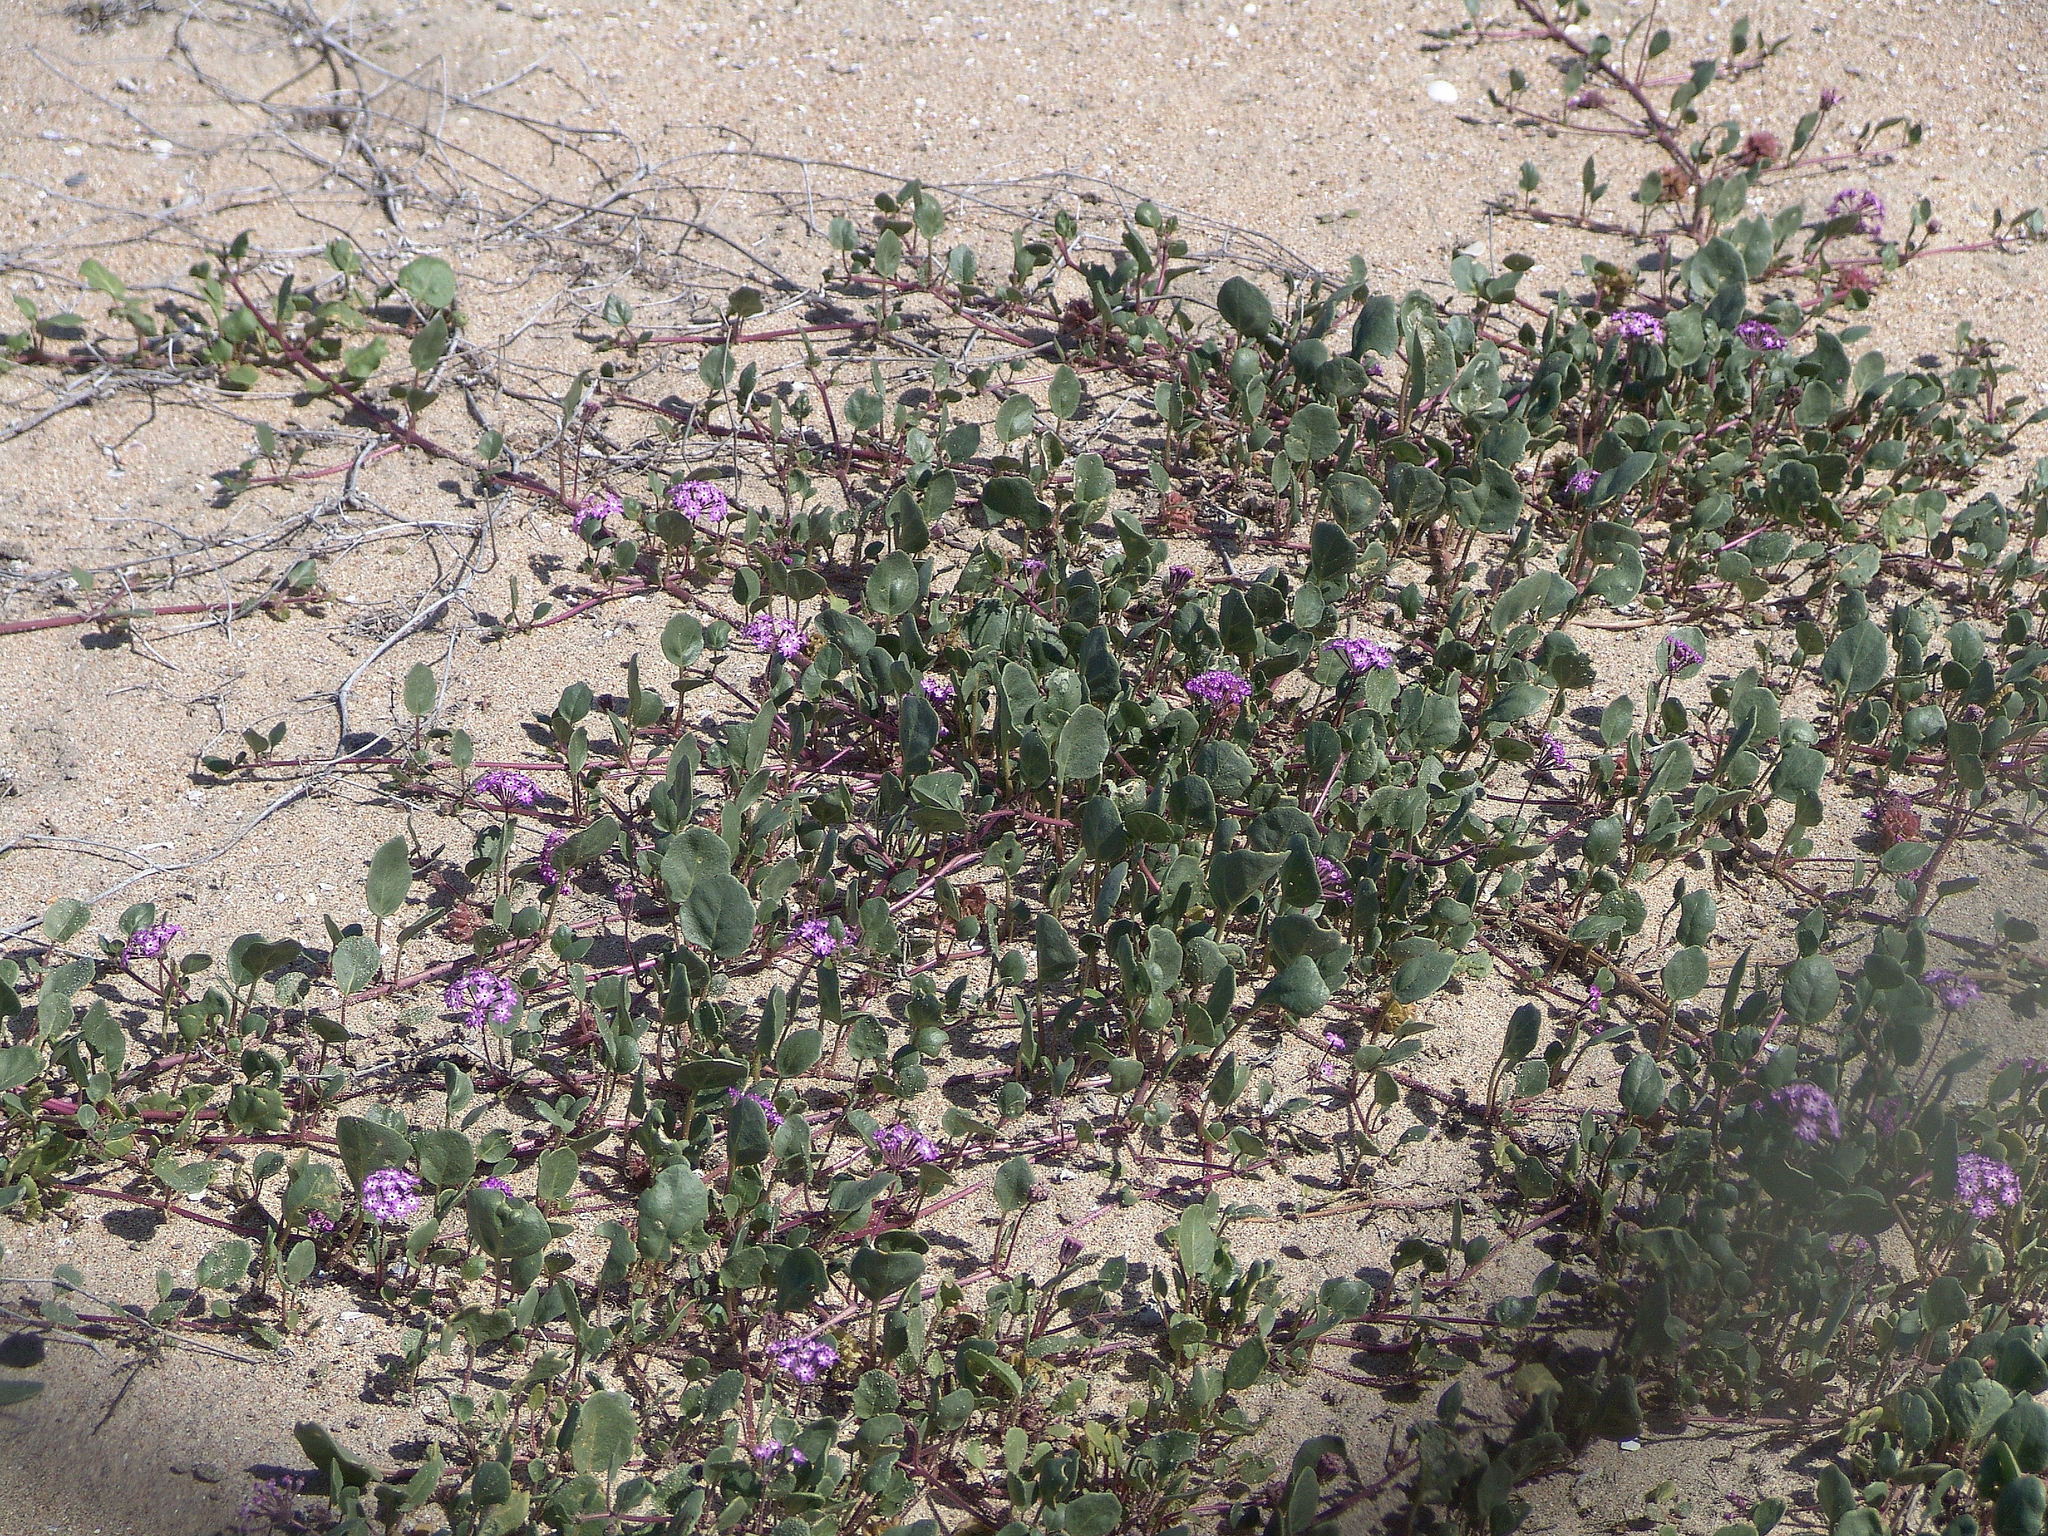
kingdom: Plantae
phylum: Tracheophyta
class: Magnoliopsida
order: Caryophyllales
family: Nyctaginaceae
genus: Abronia
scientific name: Abronia umbellata
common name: Sand-verbena
